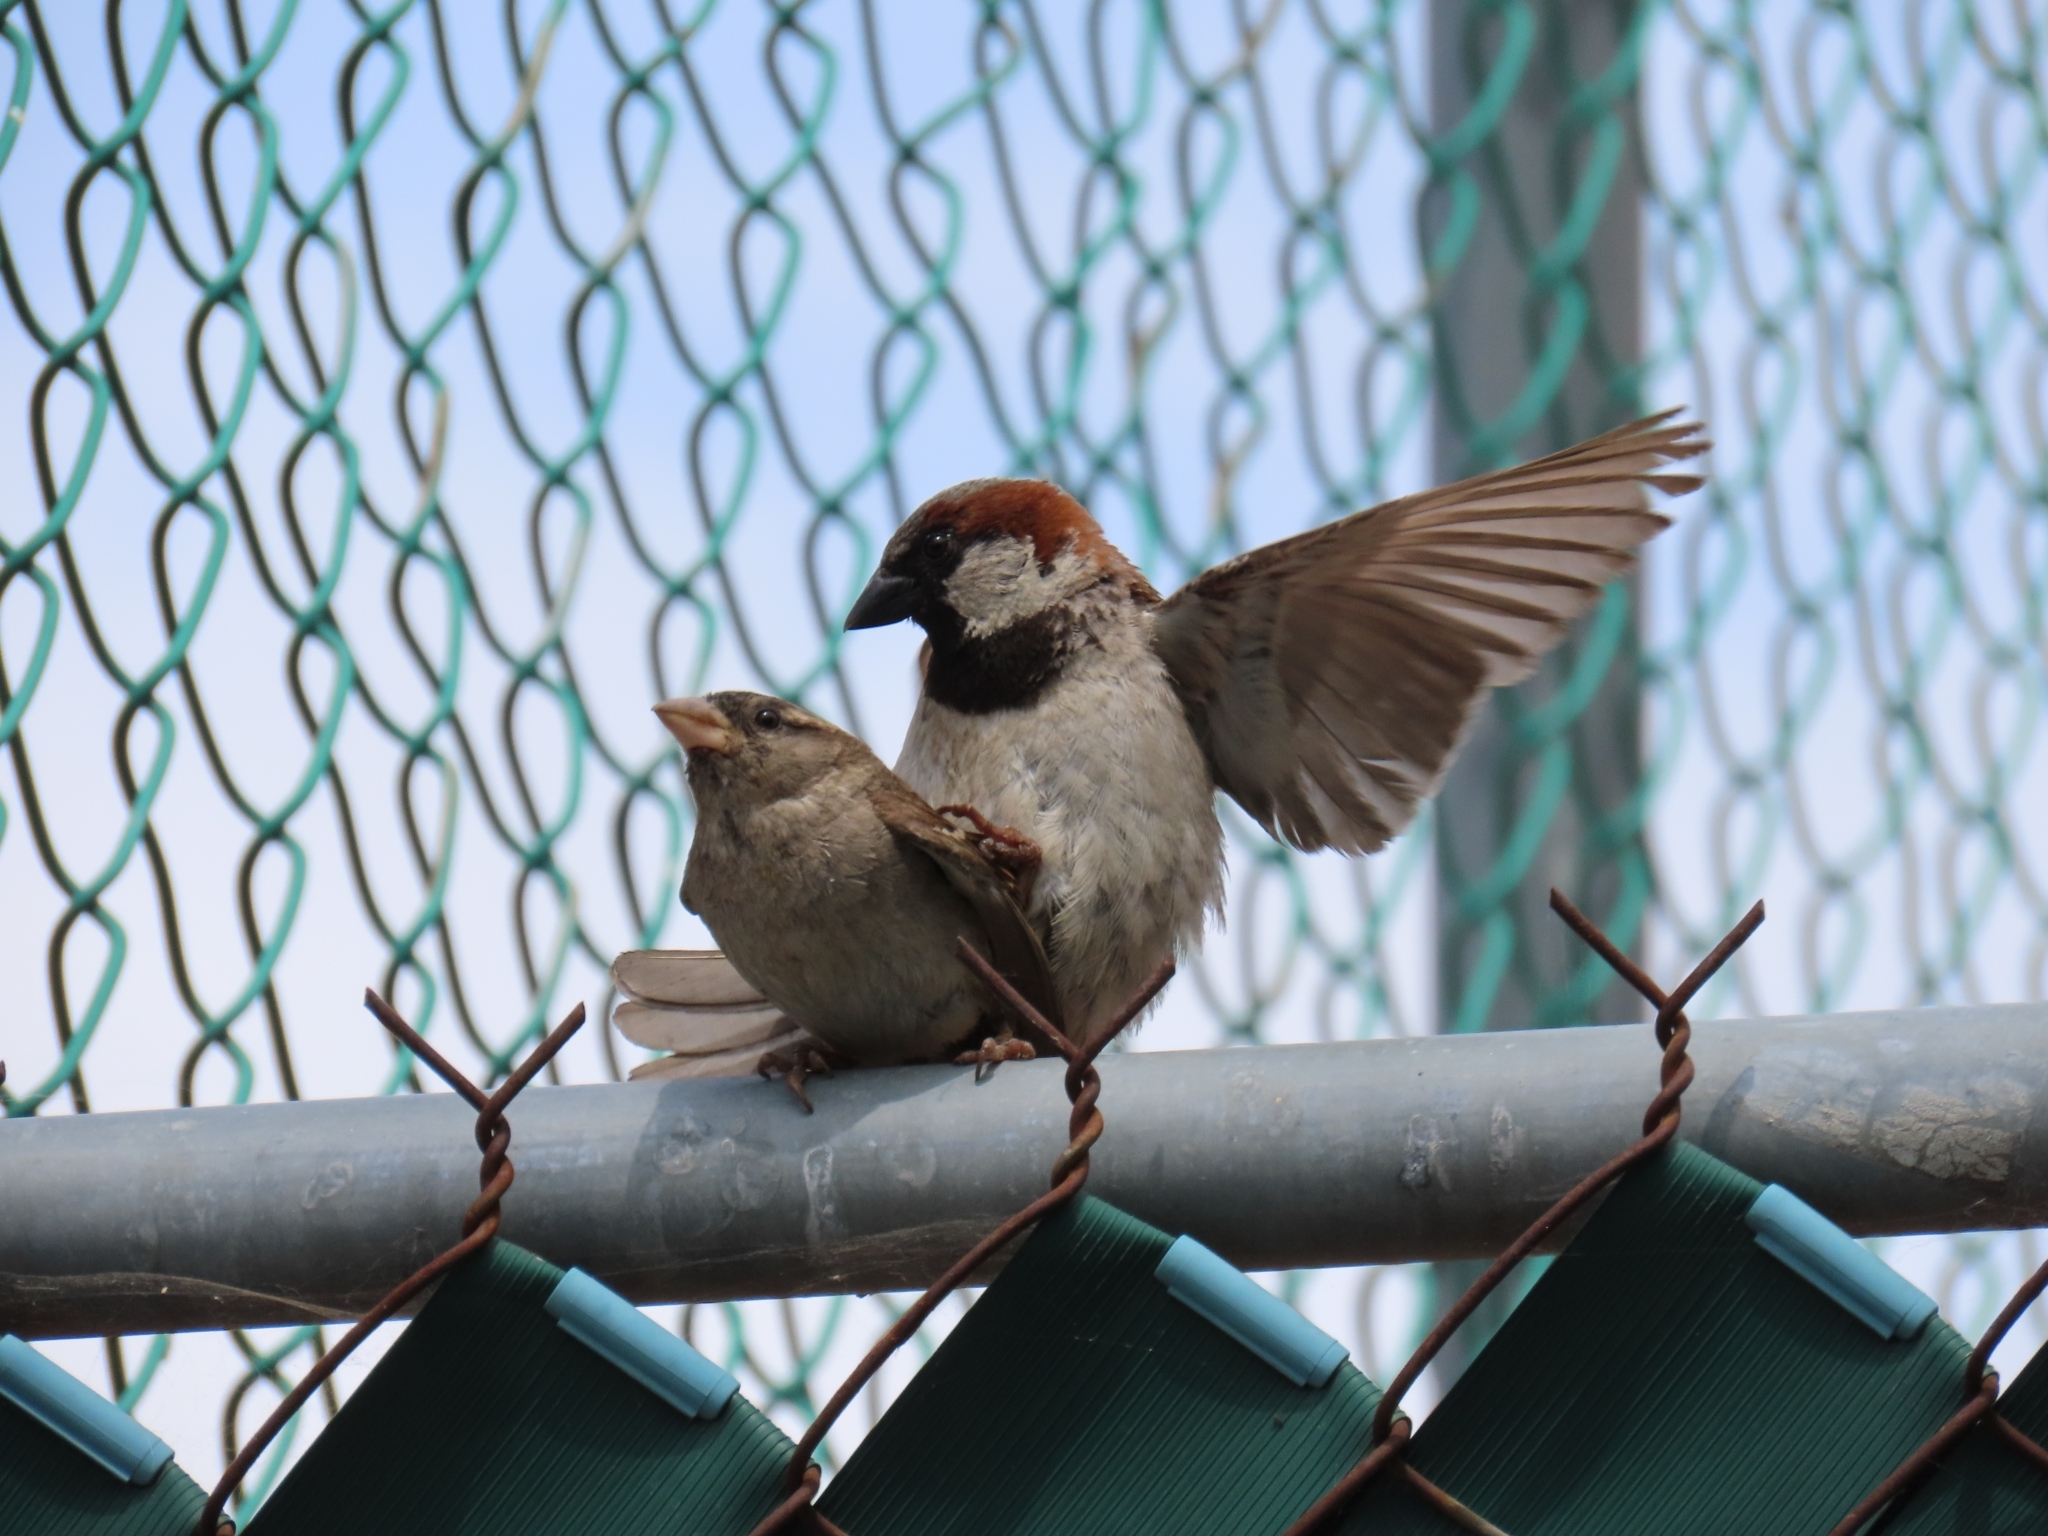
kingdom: Animalia
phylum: Chordata
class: Aves
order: Passeriformes
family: Passeridae
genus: Passer
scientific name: Passer domesticus
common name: House sparrow
